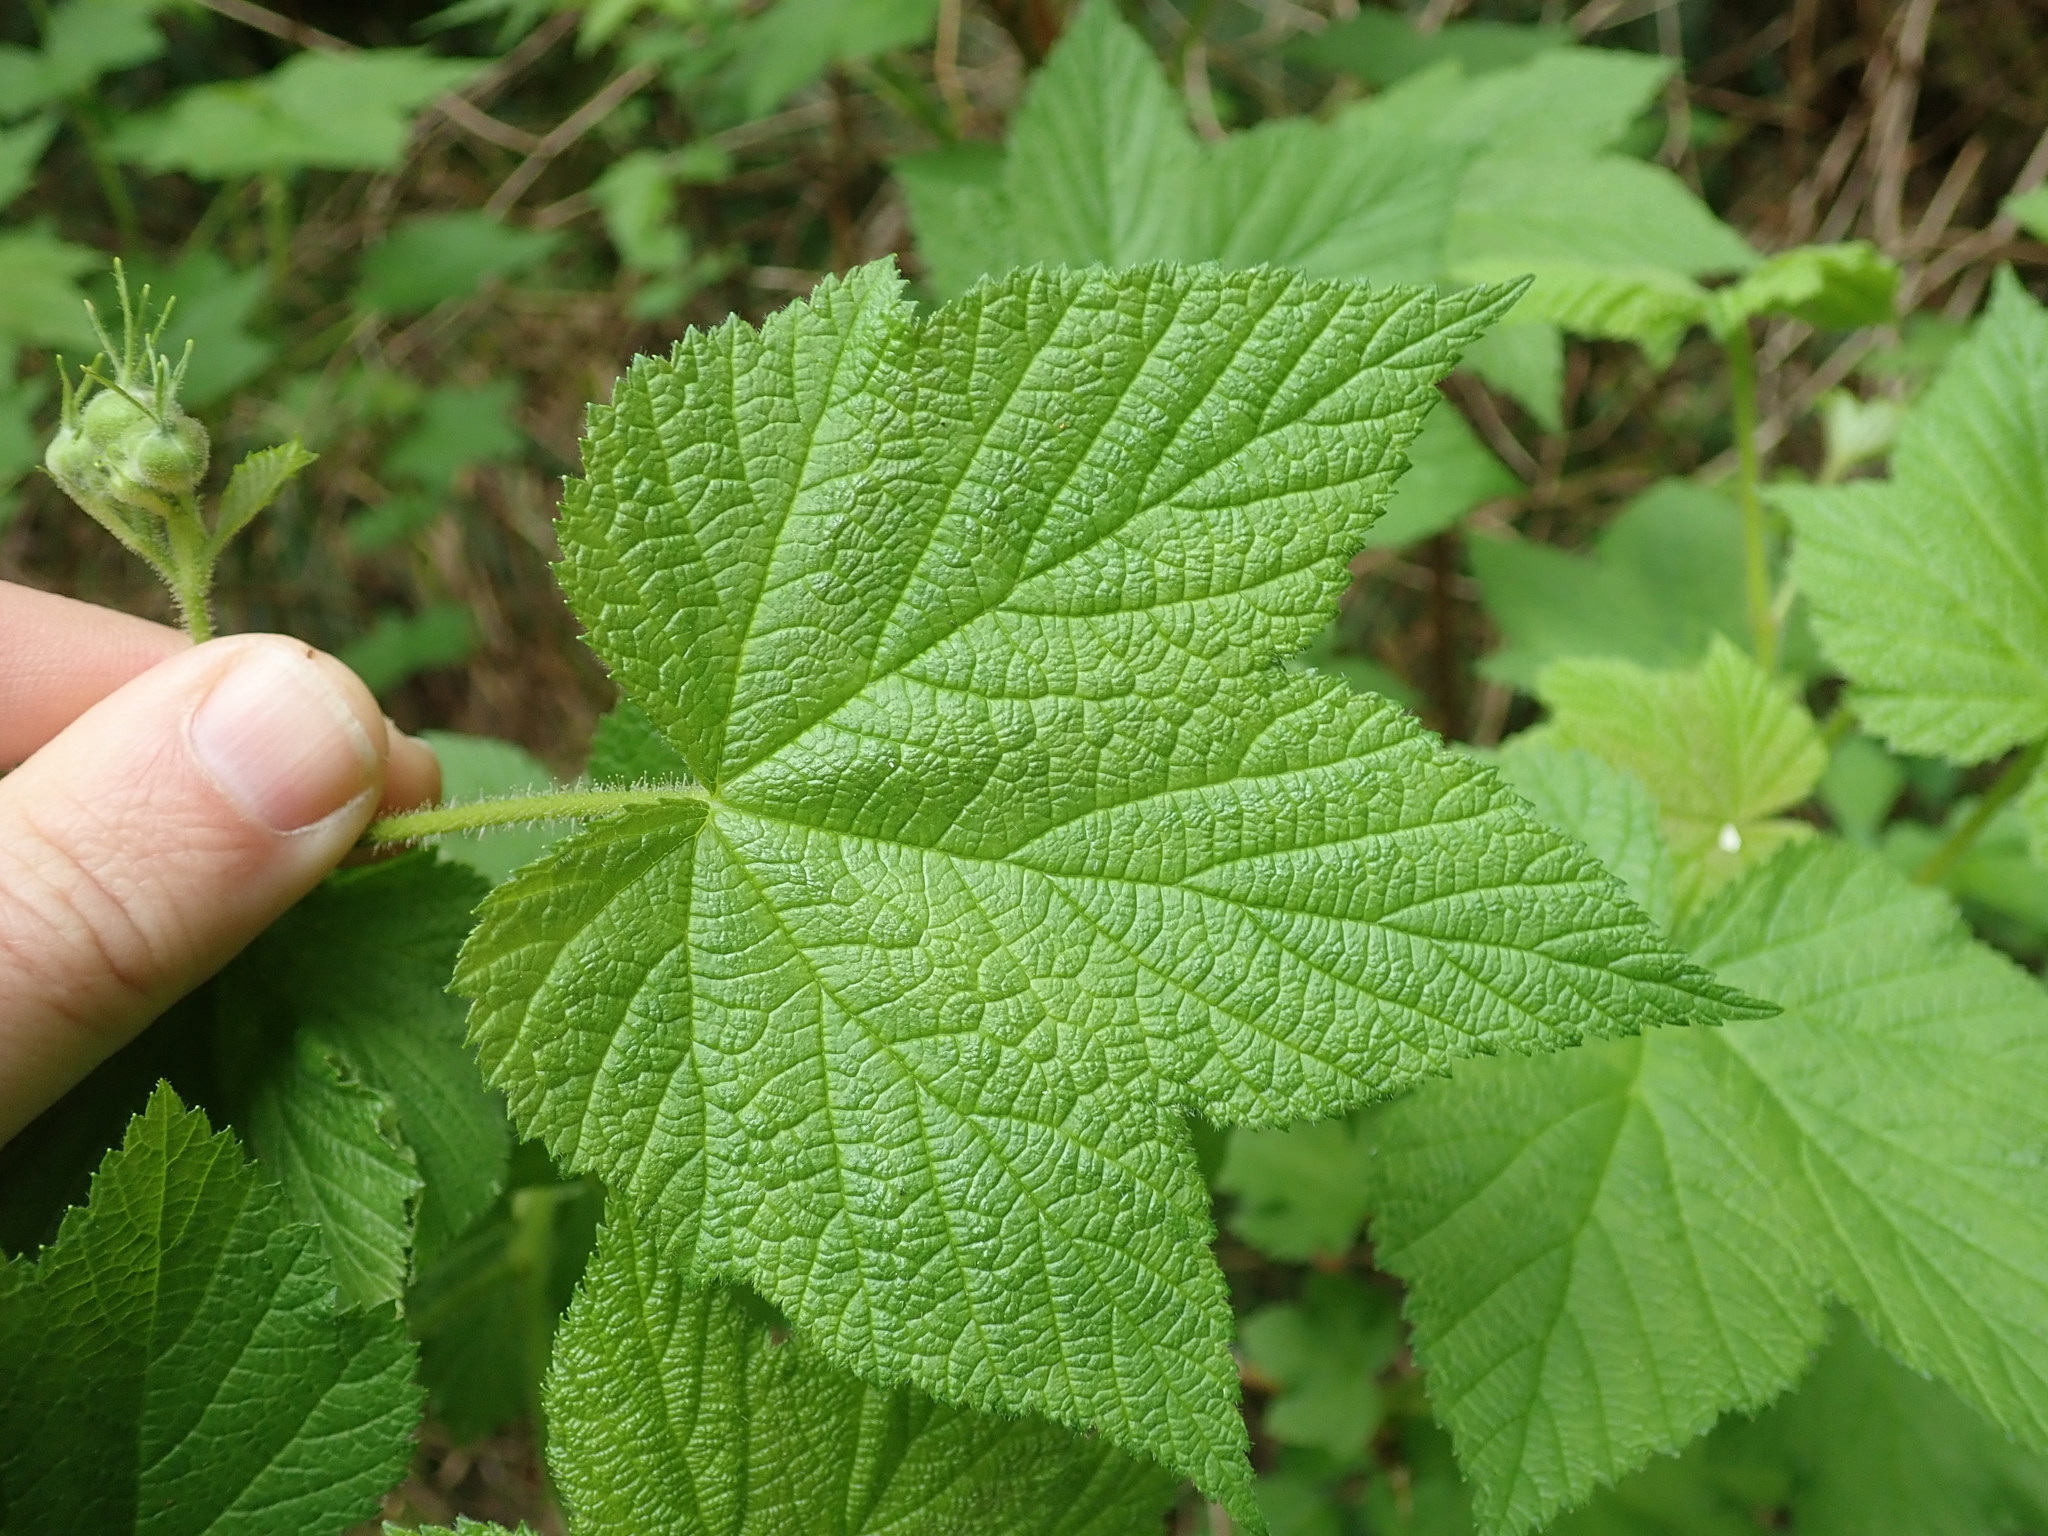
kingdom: Plantae
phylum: Tracheophyta
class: Magnoliopsida
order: Rosales
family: Rosaceae
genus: Rubus
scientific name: Rubus parviflorus
